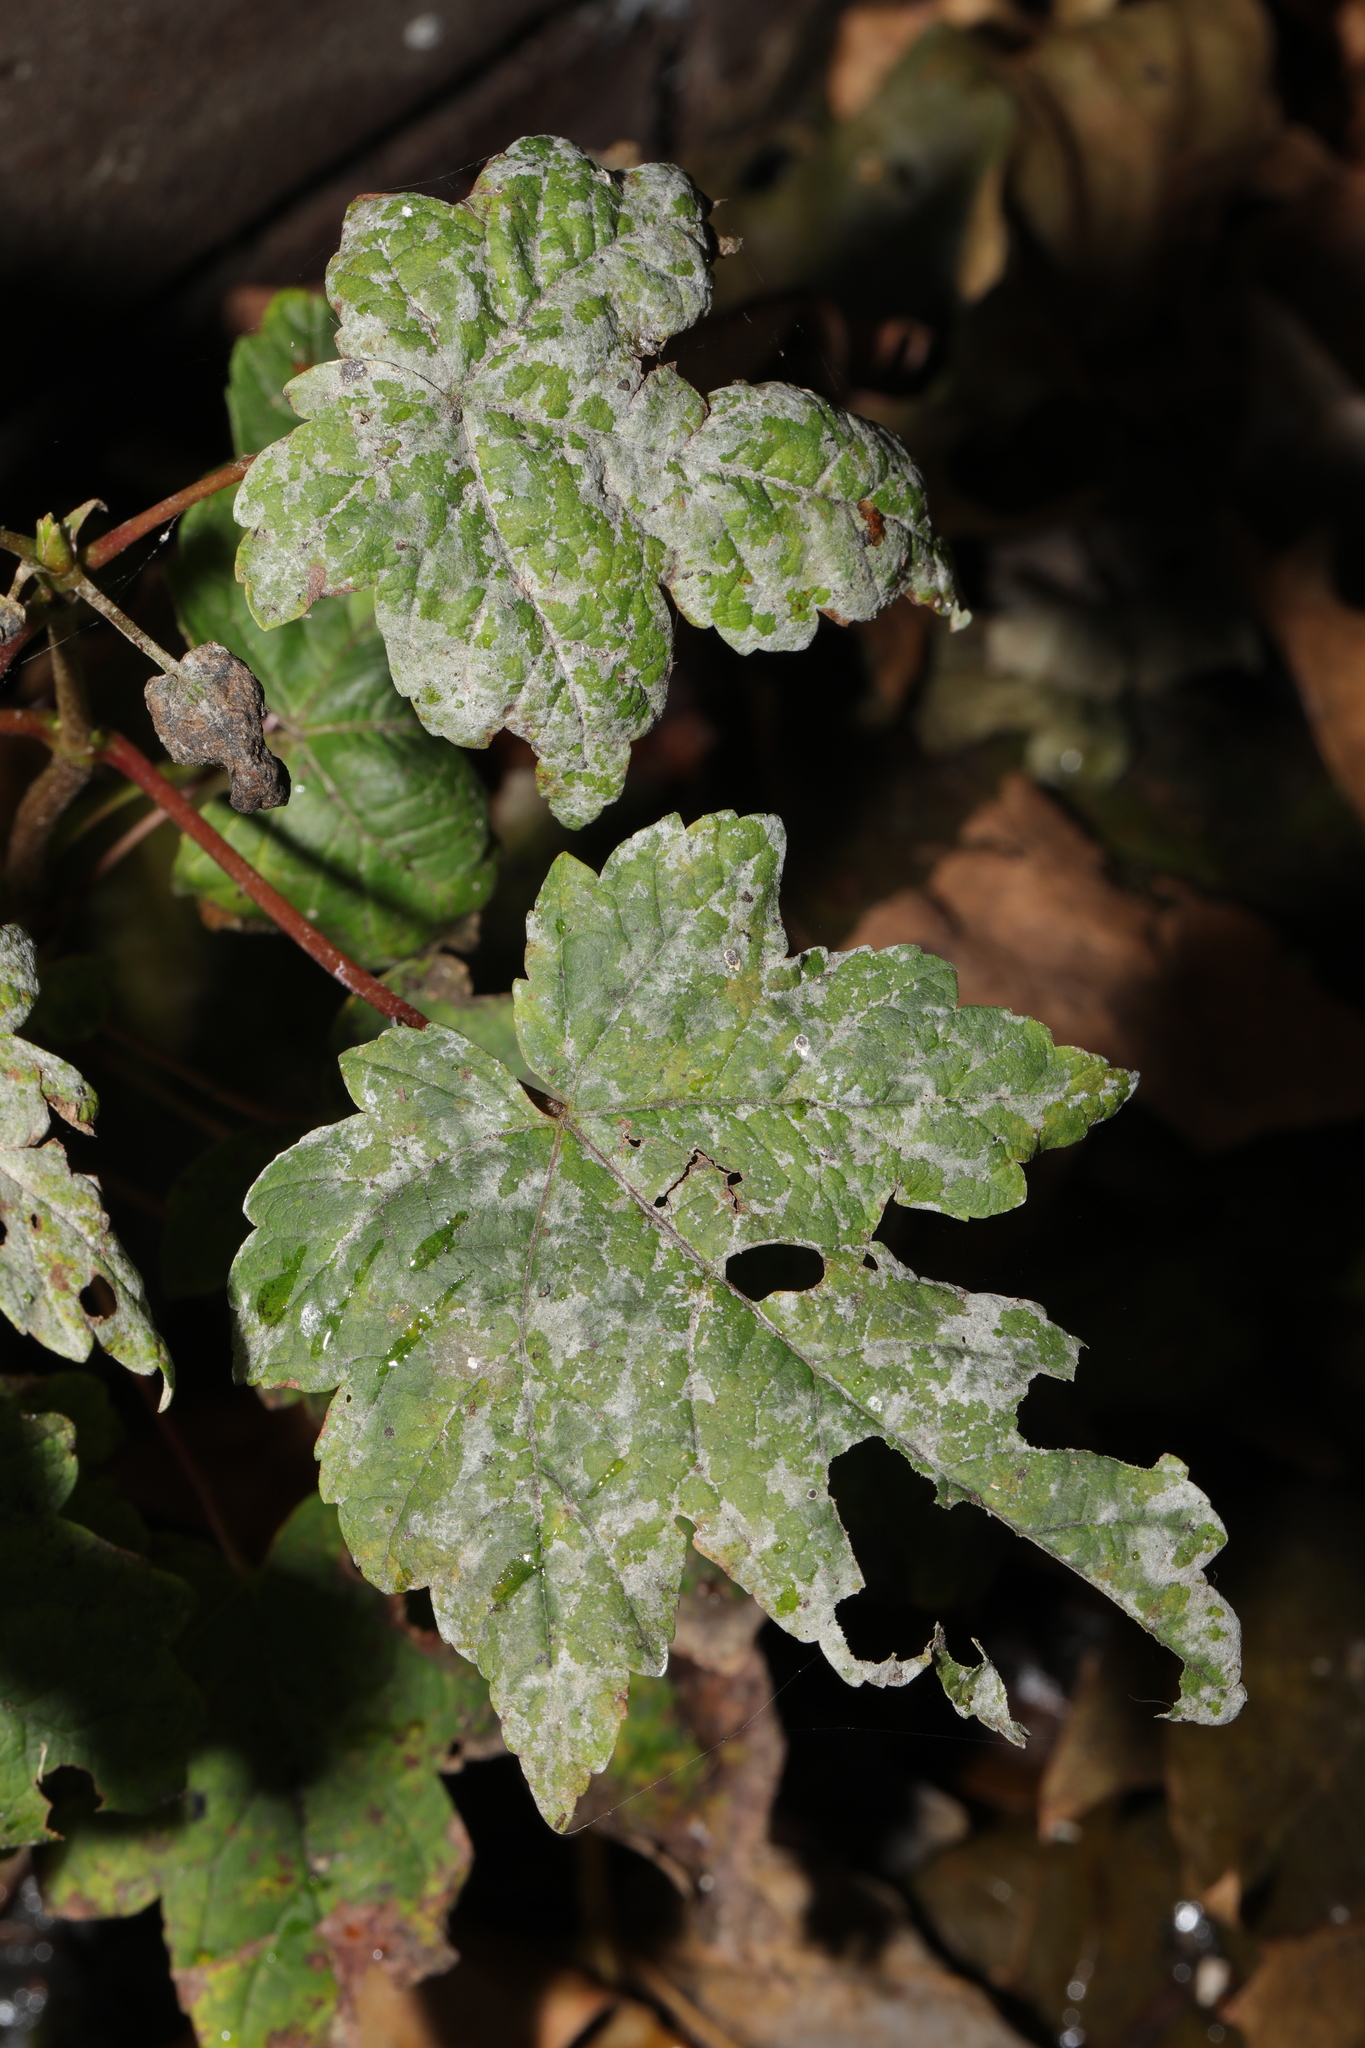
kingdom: Plantae
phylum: Tracheophyta
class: Magnoliopsida
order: Sapindales
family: Sapindaceae
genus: Acer
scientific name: Acer pseudoplatanus
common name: Sycamore
